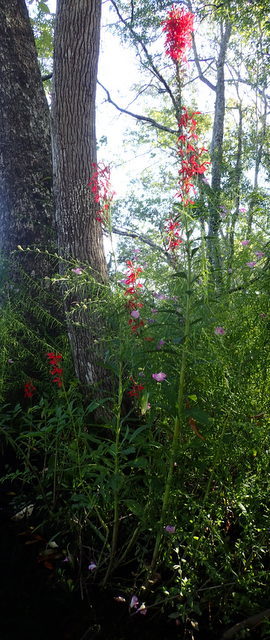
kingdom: Plantae
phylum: Tracheophyta
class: Magnoliopsida
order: Asterales
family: Campanulaceae
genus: Lobelia
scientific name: Lobelia cardinalis
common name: Cardinal flower
